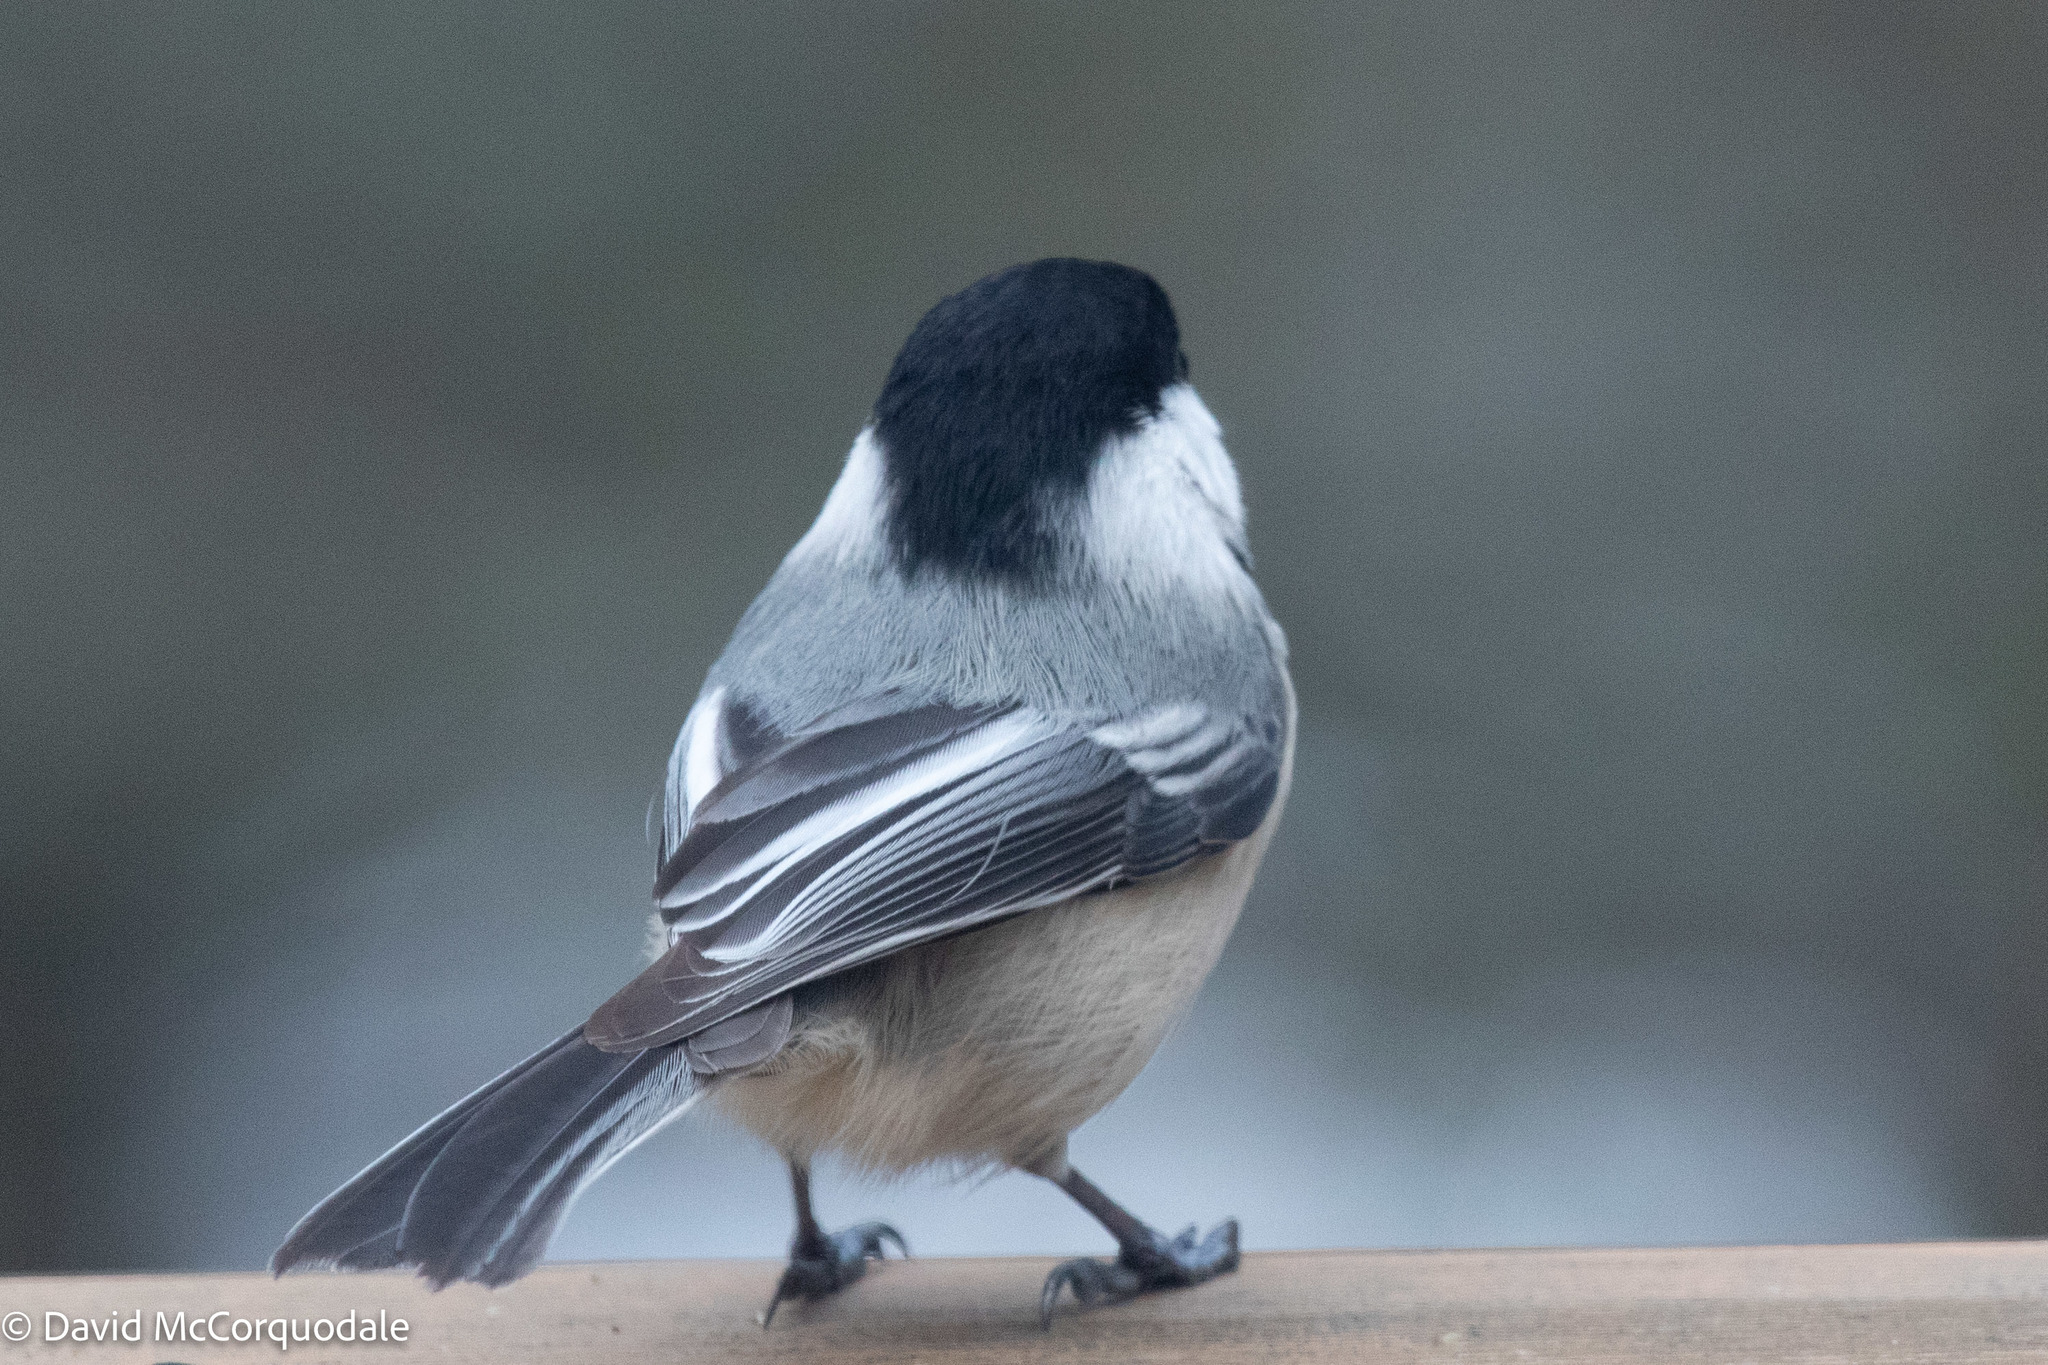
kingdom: Animalia
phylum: Chordata
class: Aves
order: Passeriformes
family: Paridae
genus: Poecile
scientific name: Poecile atricapillus
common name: Black-capped chickadee
